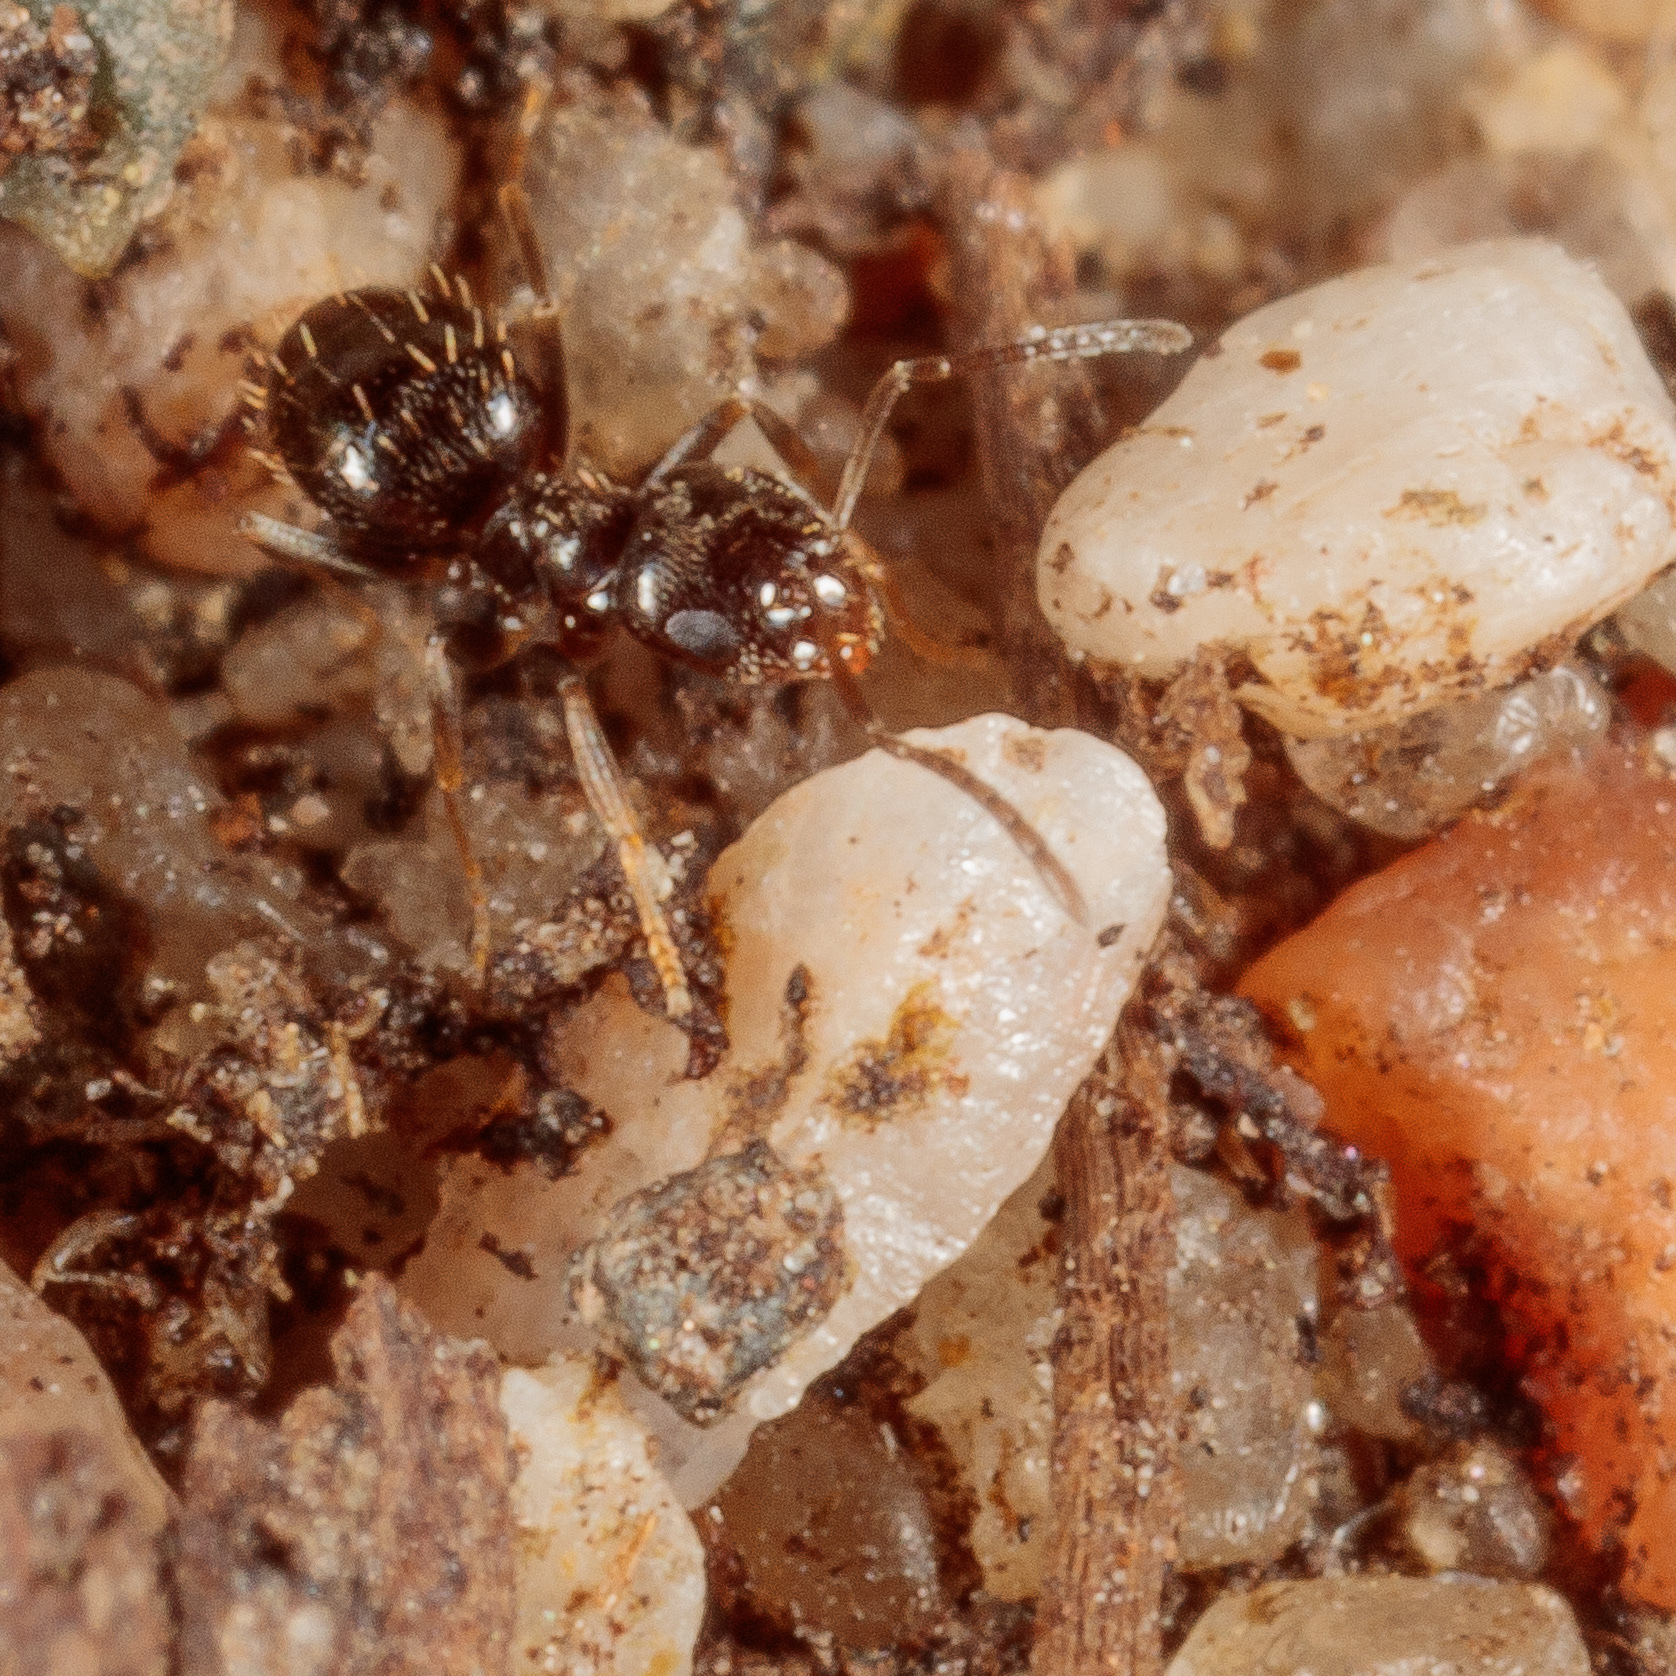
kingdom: Animalia
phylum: Arthropoda
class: Insecta
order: Hymenoptera
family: Formicidae
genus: Brachymyrmex
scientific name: Brachymyrmex patagonicus
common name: Dark rover ant
